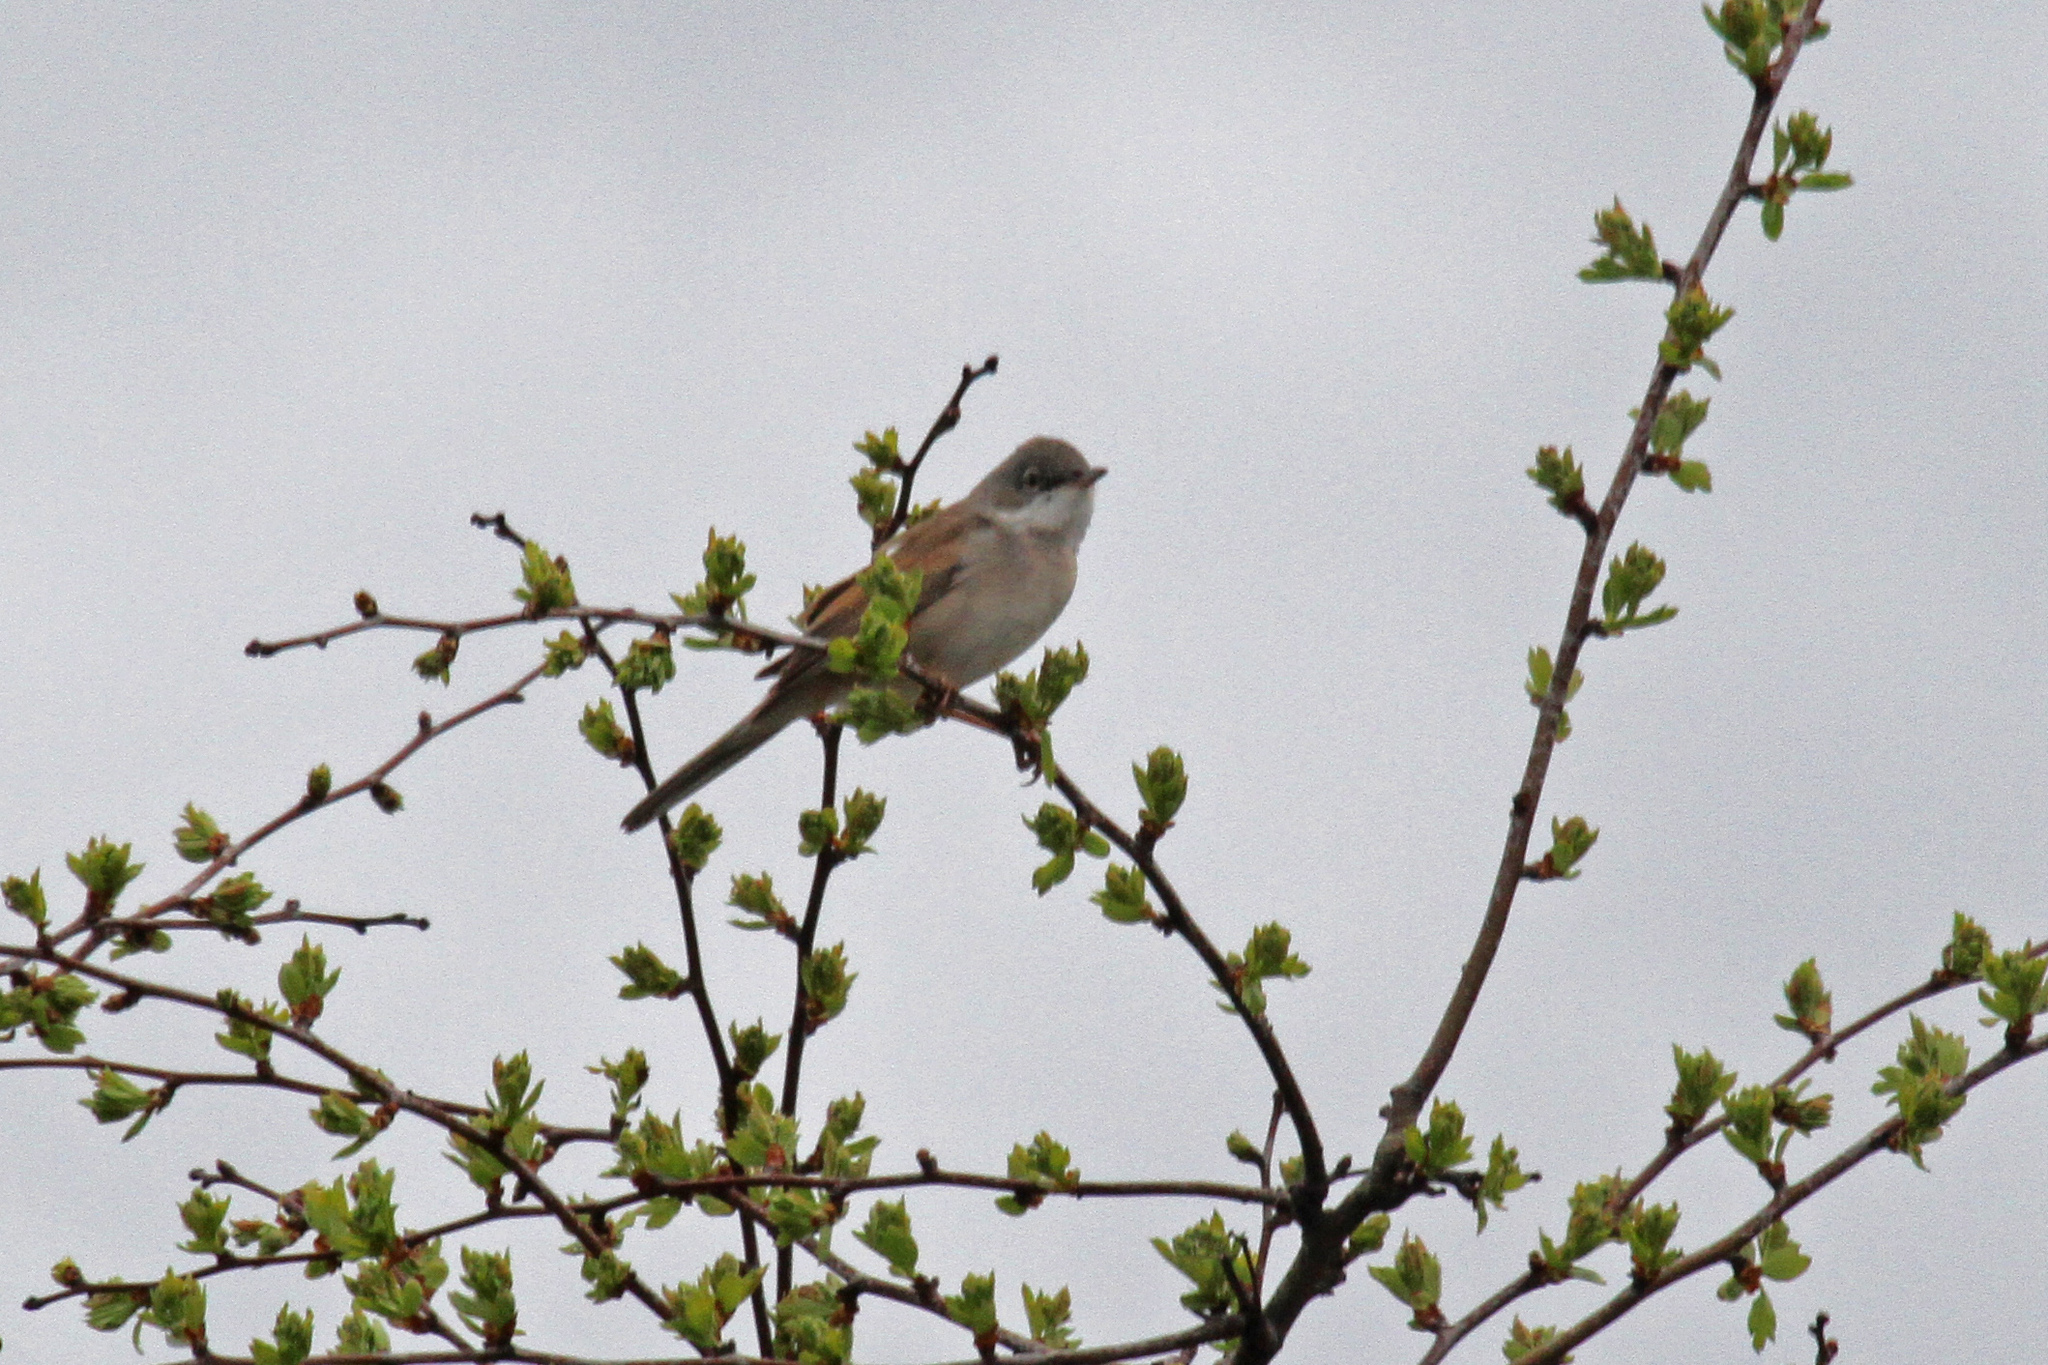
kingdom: Animalia
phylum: Chordata
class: Aves
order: Passeriformes
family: Sylviidae
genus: Sylvia
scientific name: Sylvia communis
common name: Common whitethroat
